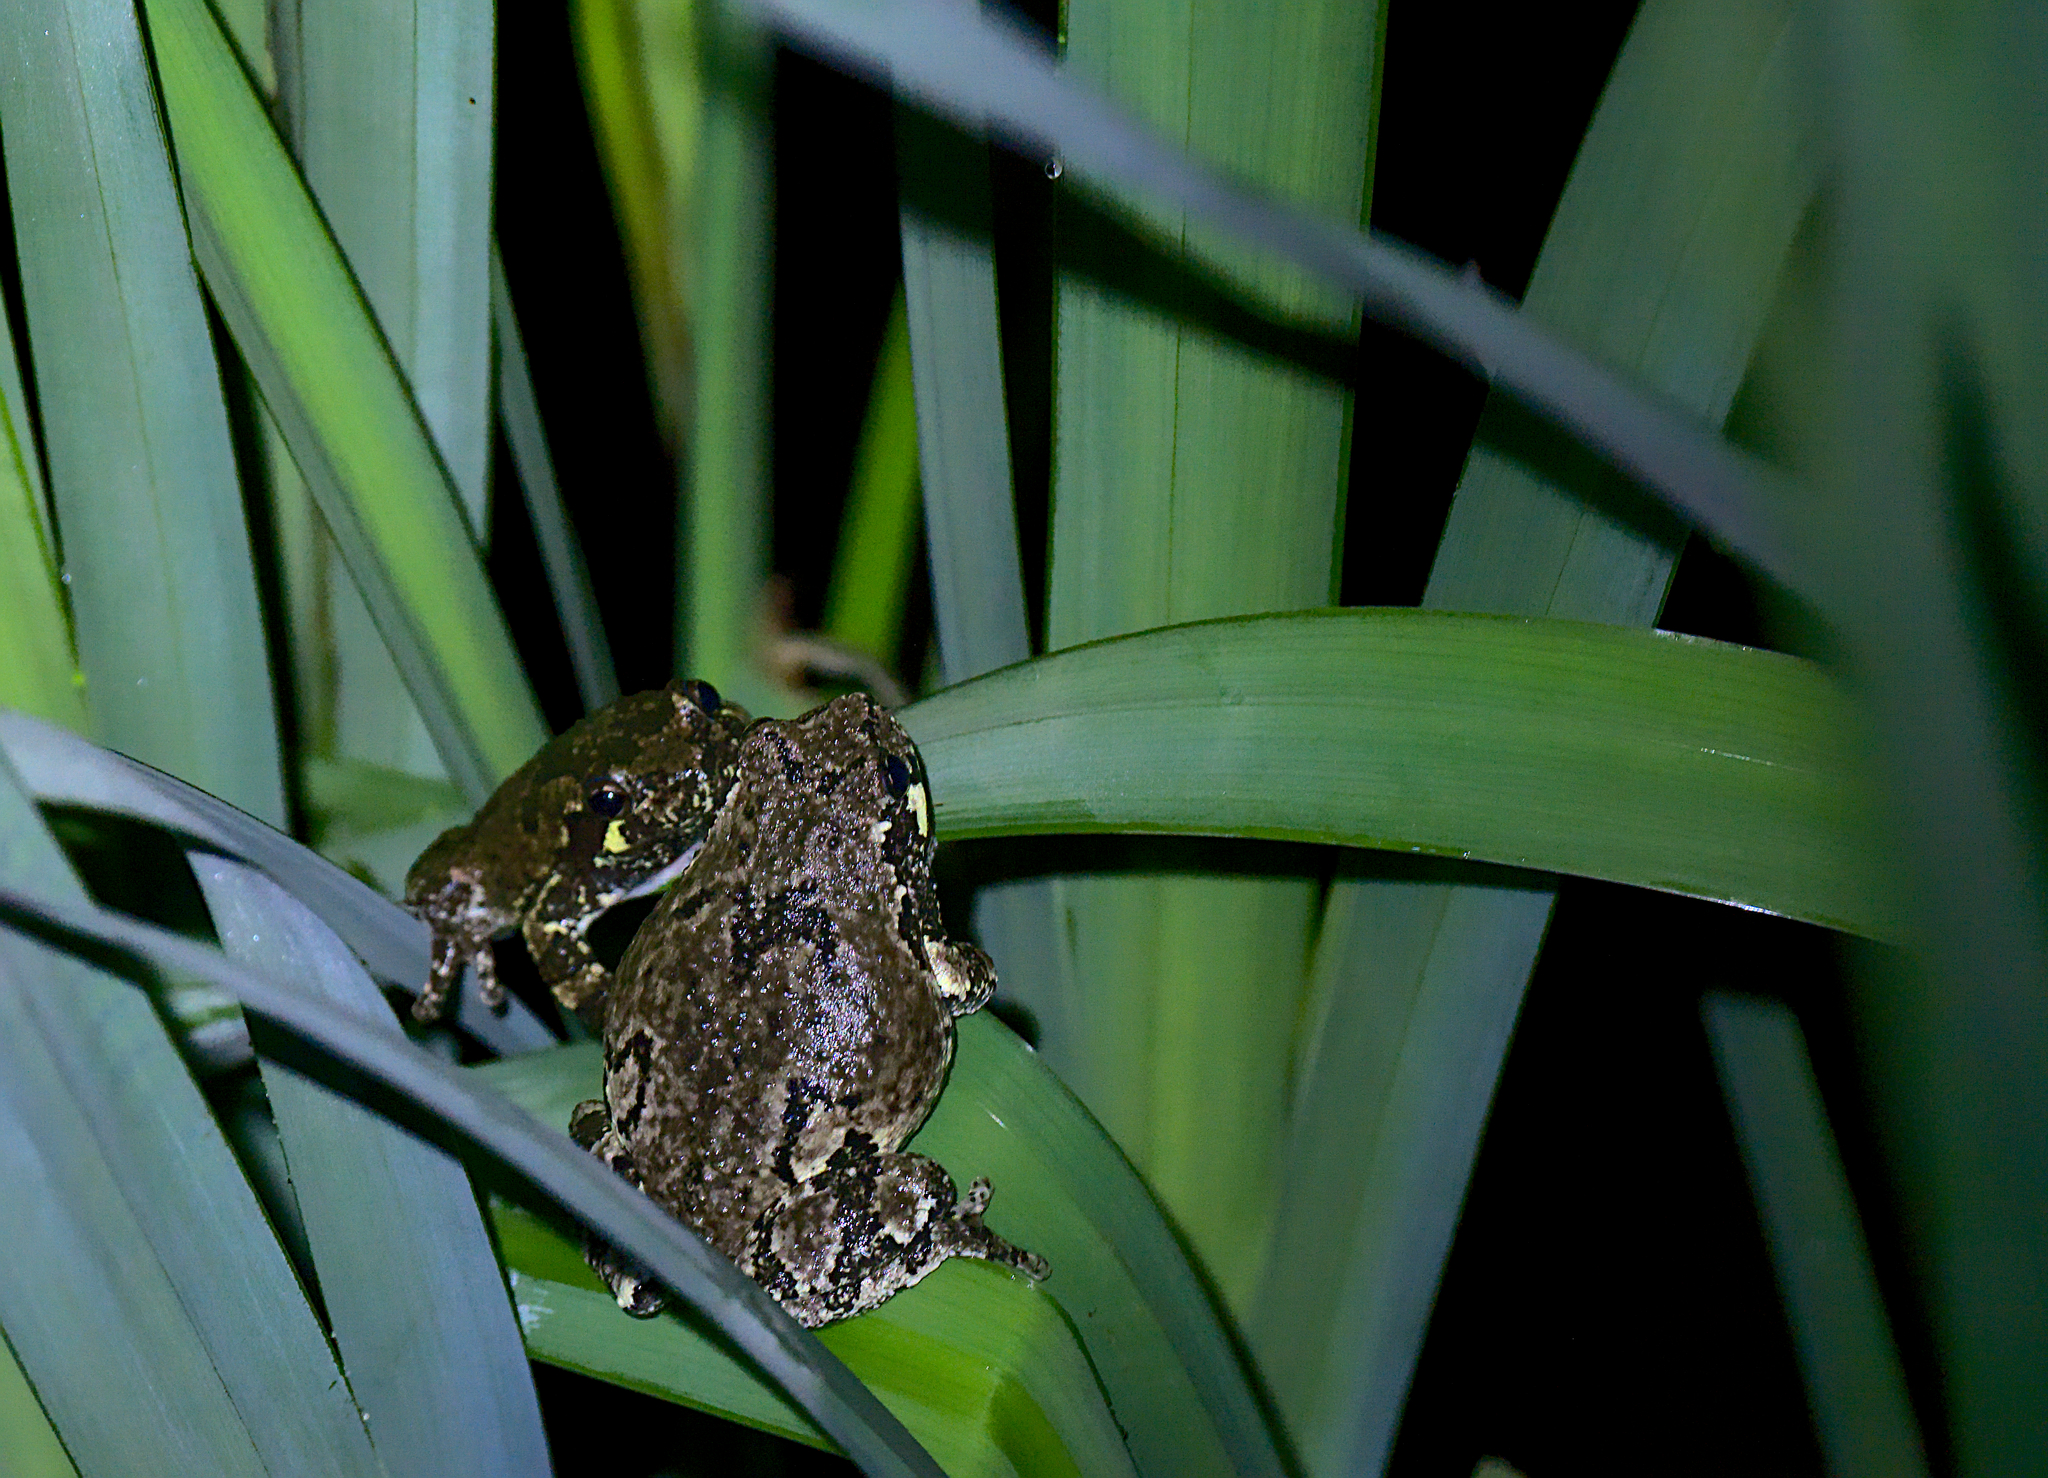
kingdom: Animalia
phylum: Chordata
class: Amphibia
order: Anura
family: Hylidae
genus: Dryophytes
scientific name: Dryophytes versicolor
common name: Gray treefrog
